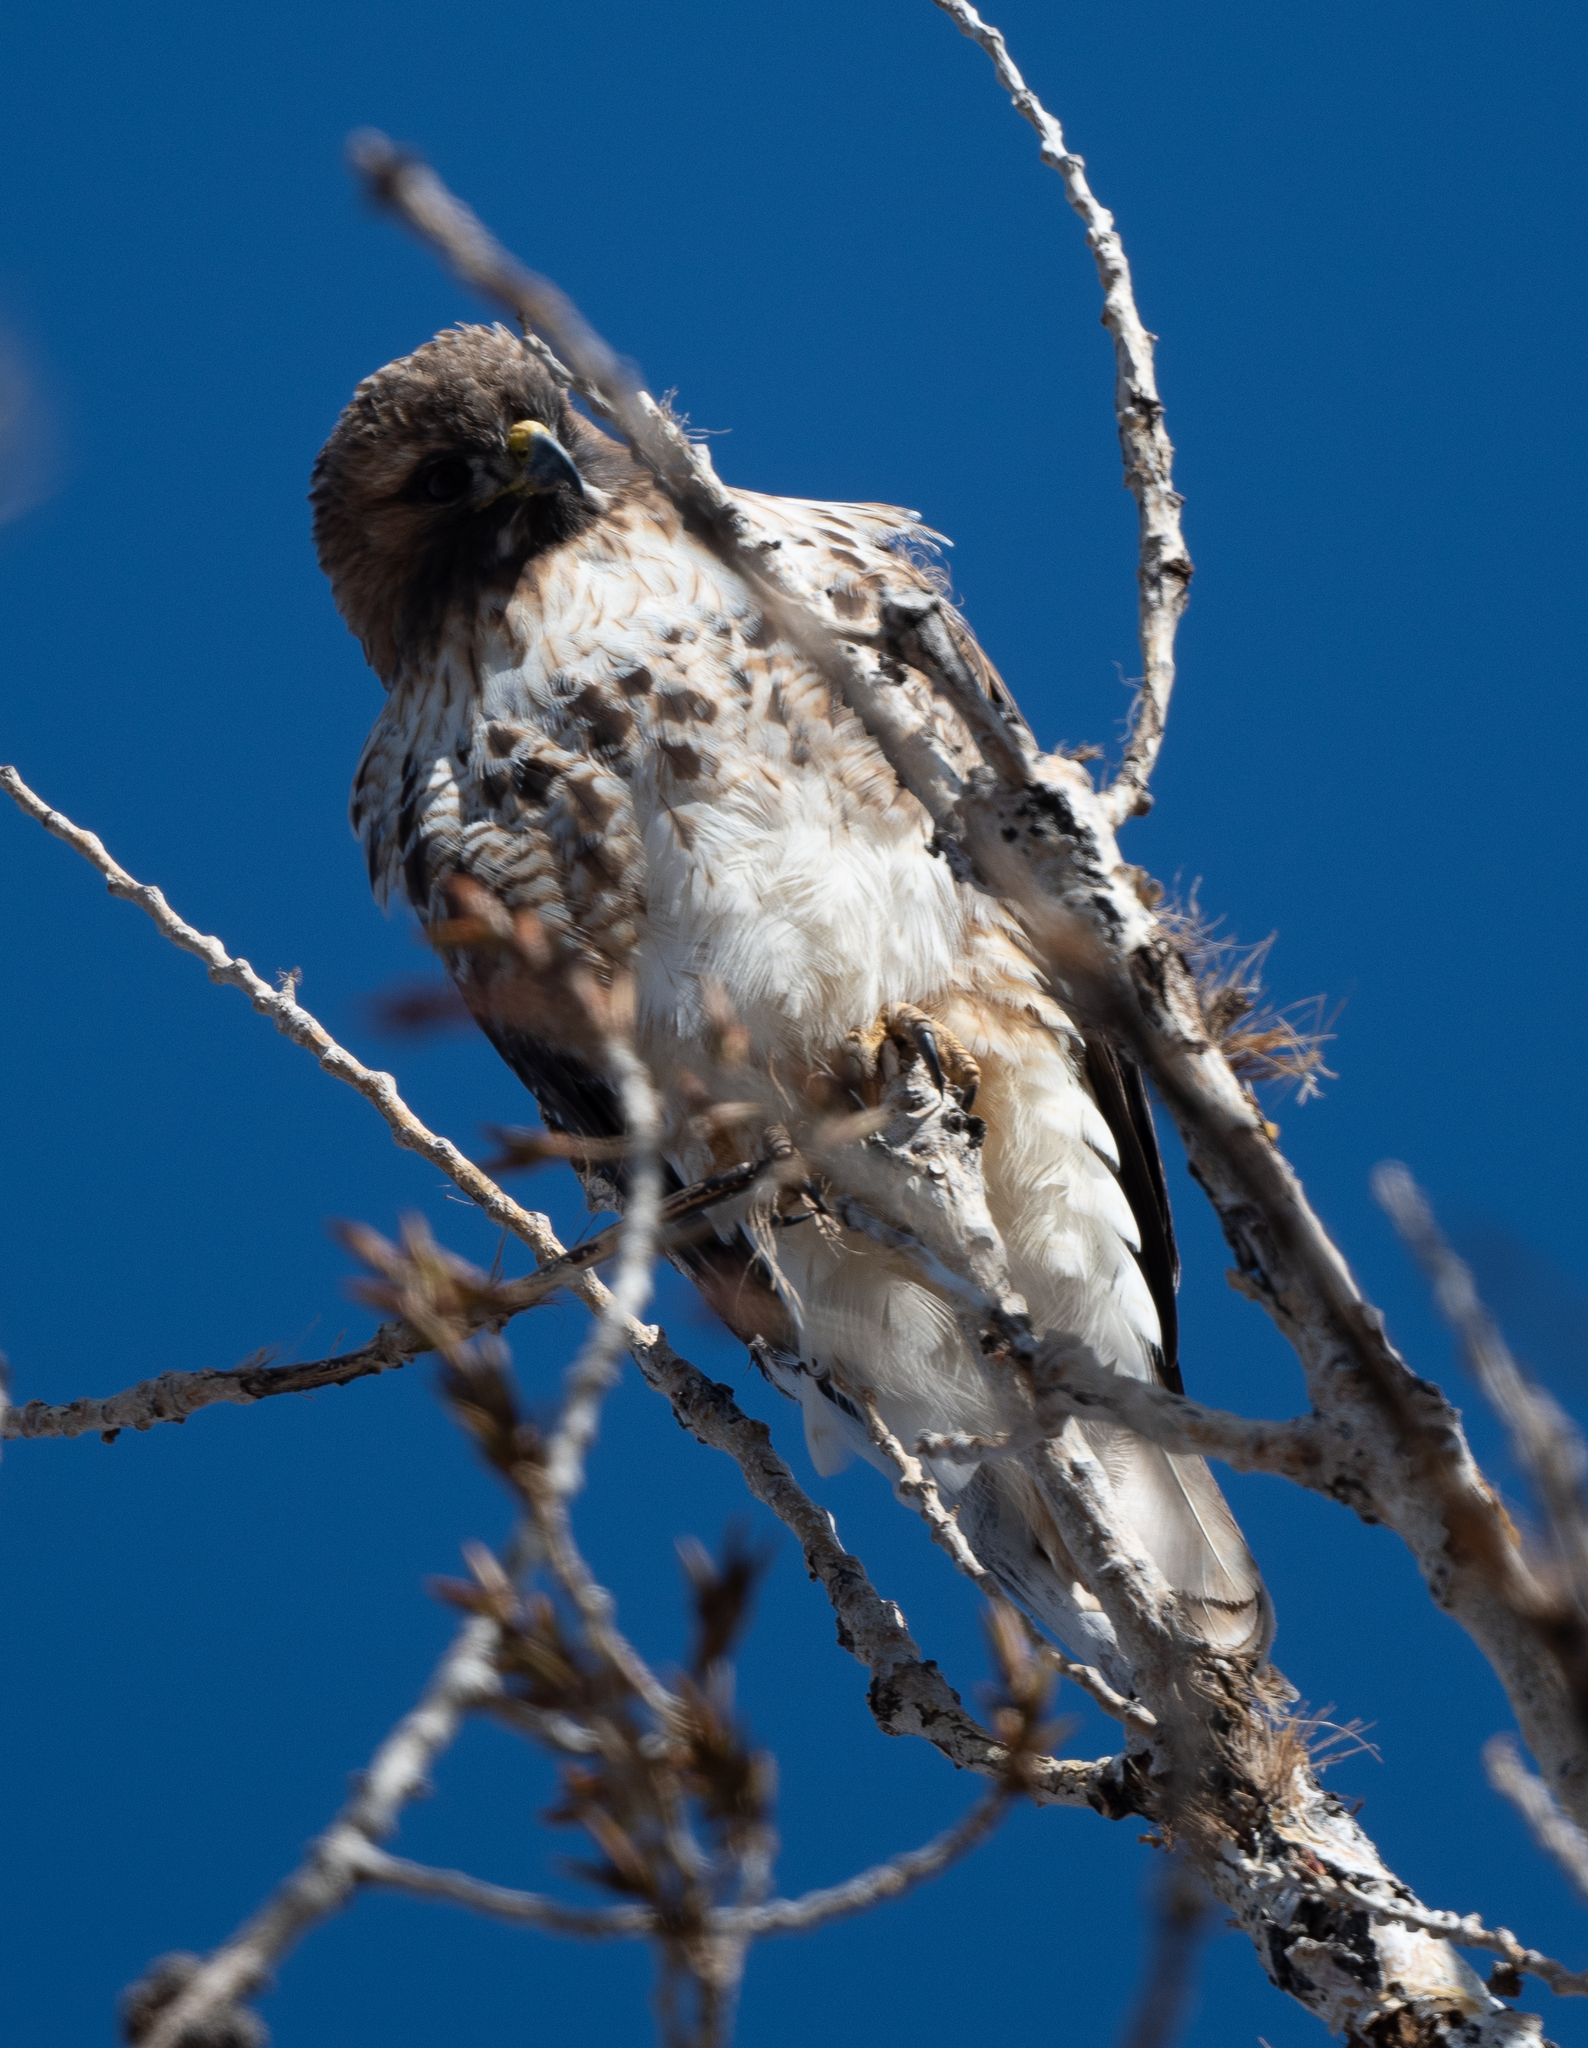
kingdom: Animalia
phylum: Chordata
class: Aves
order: Accipitriformes
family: Accipitridae
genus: Buteo
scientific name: Buteo jamaicensis
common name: Red-tailed hawk
